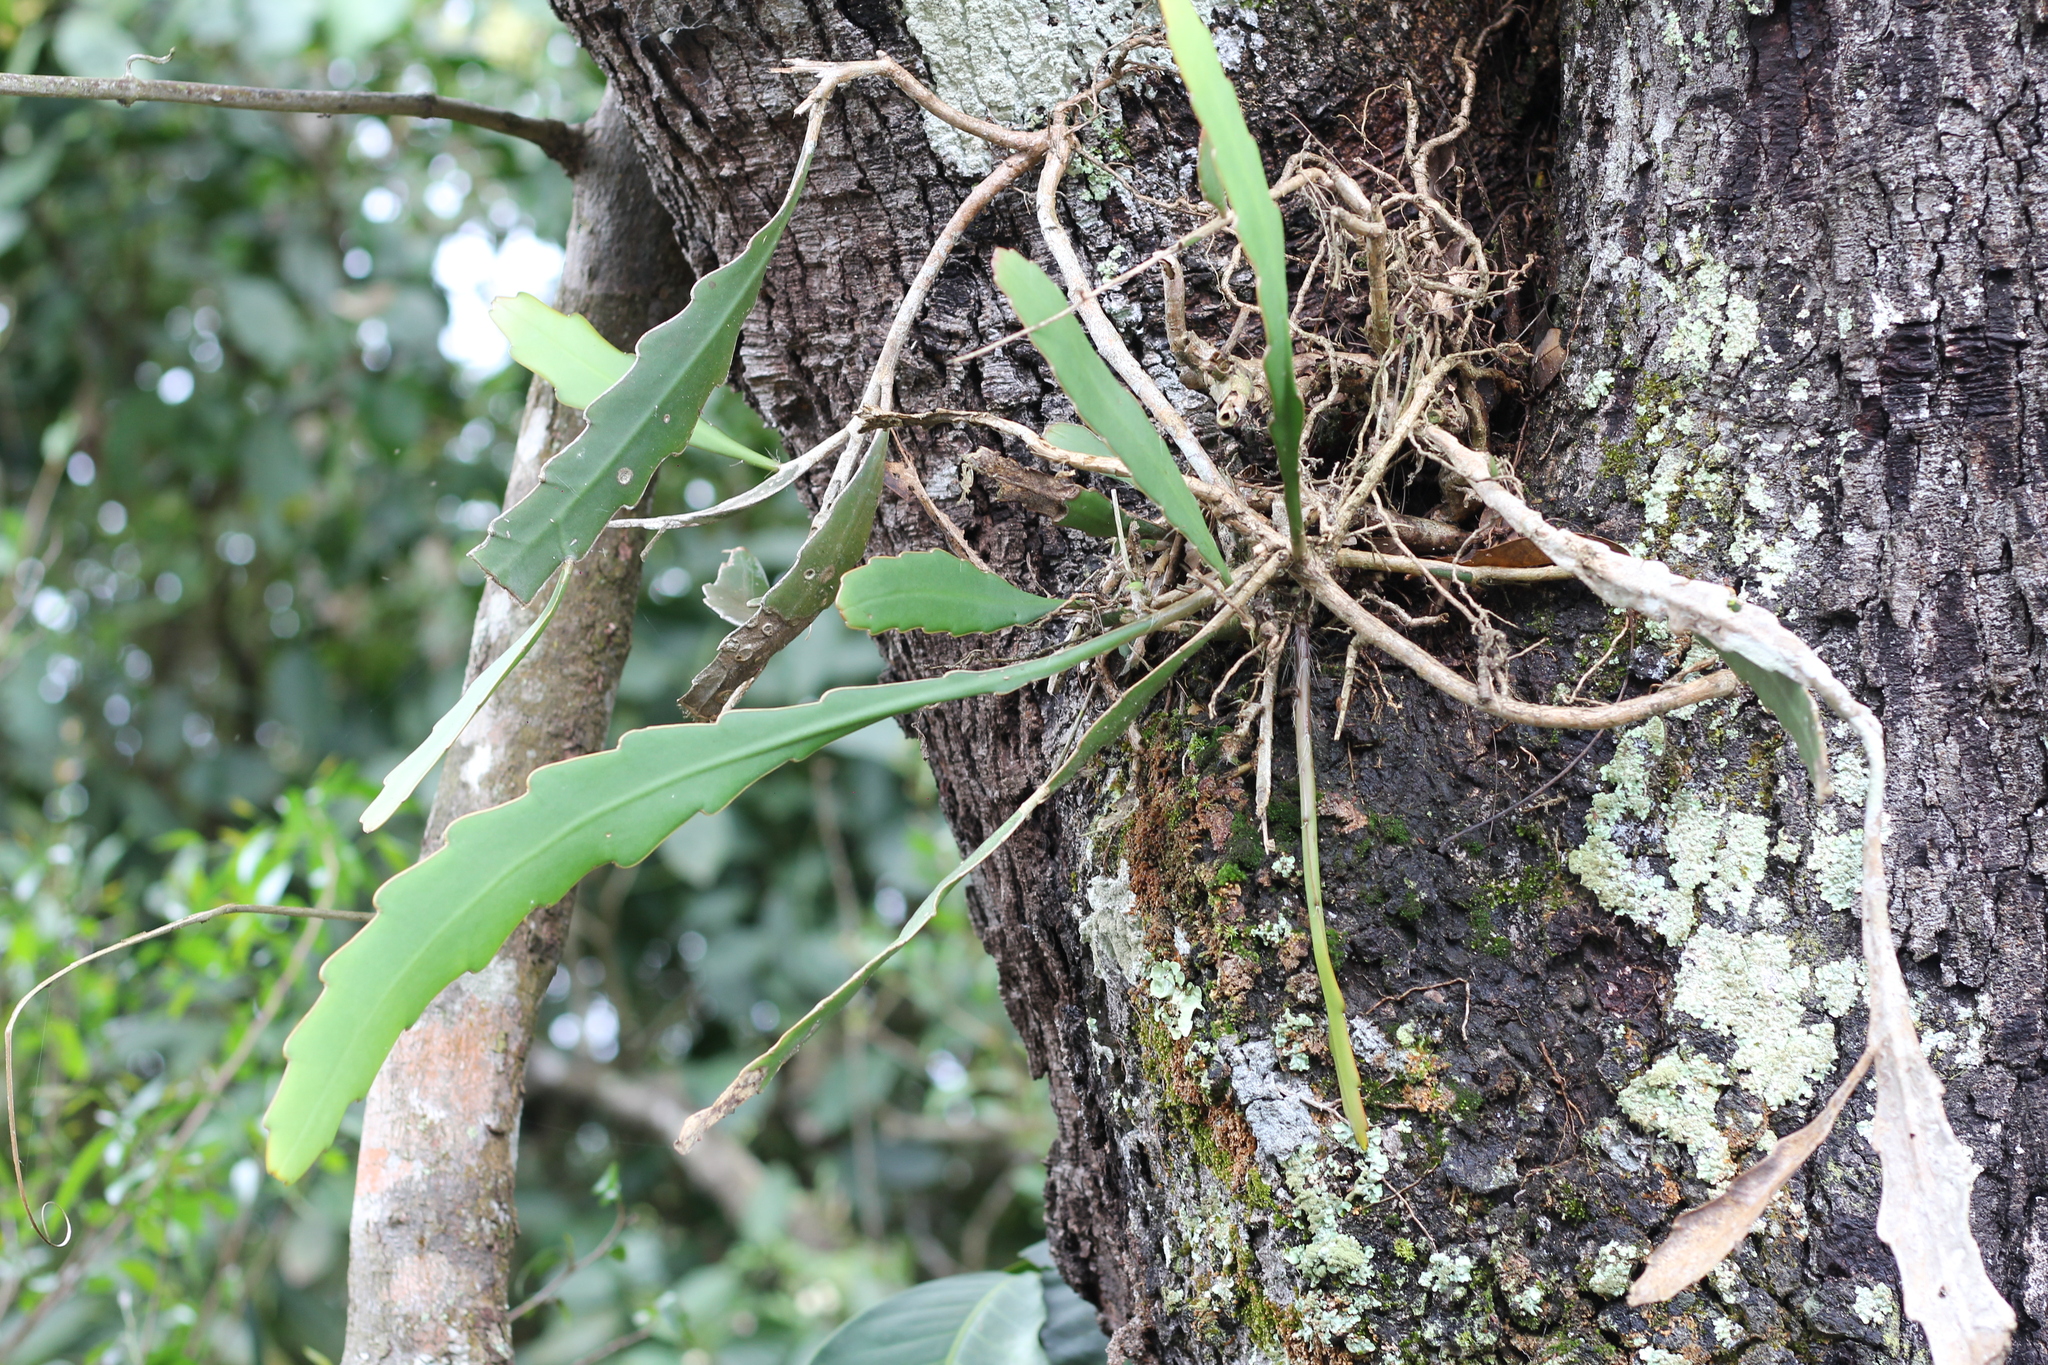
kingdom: Plantae
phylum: Tracheophyta
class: Magnoliopsida
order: Caryophyllales
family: Cactaceae
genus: Epiphyllum
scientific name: Epiphyllum phyllanthus
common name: Climbing cactus
